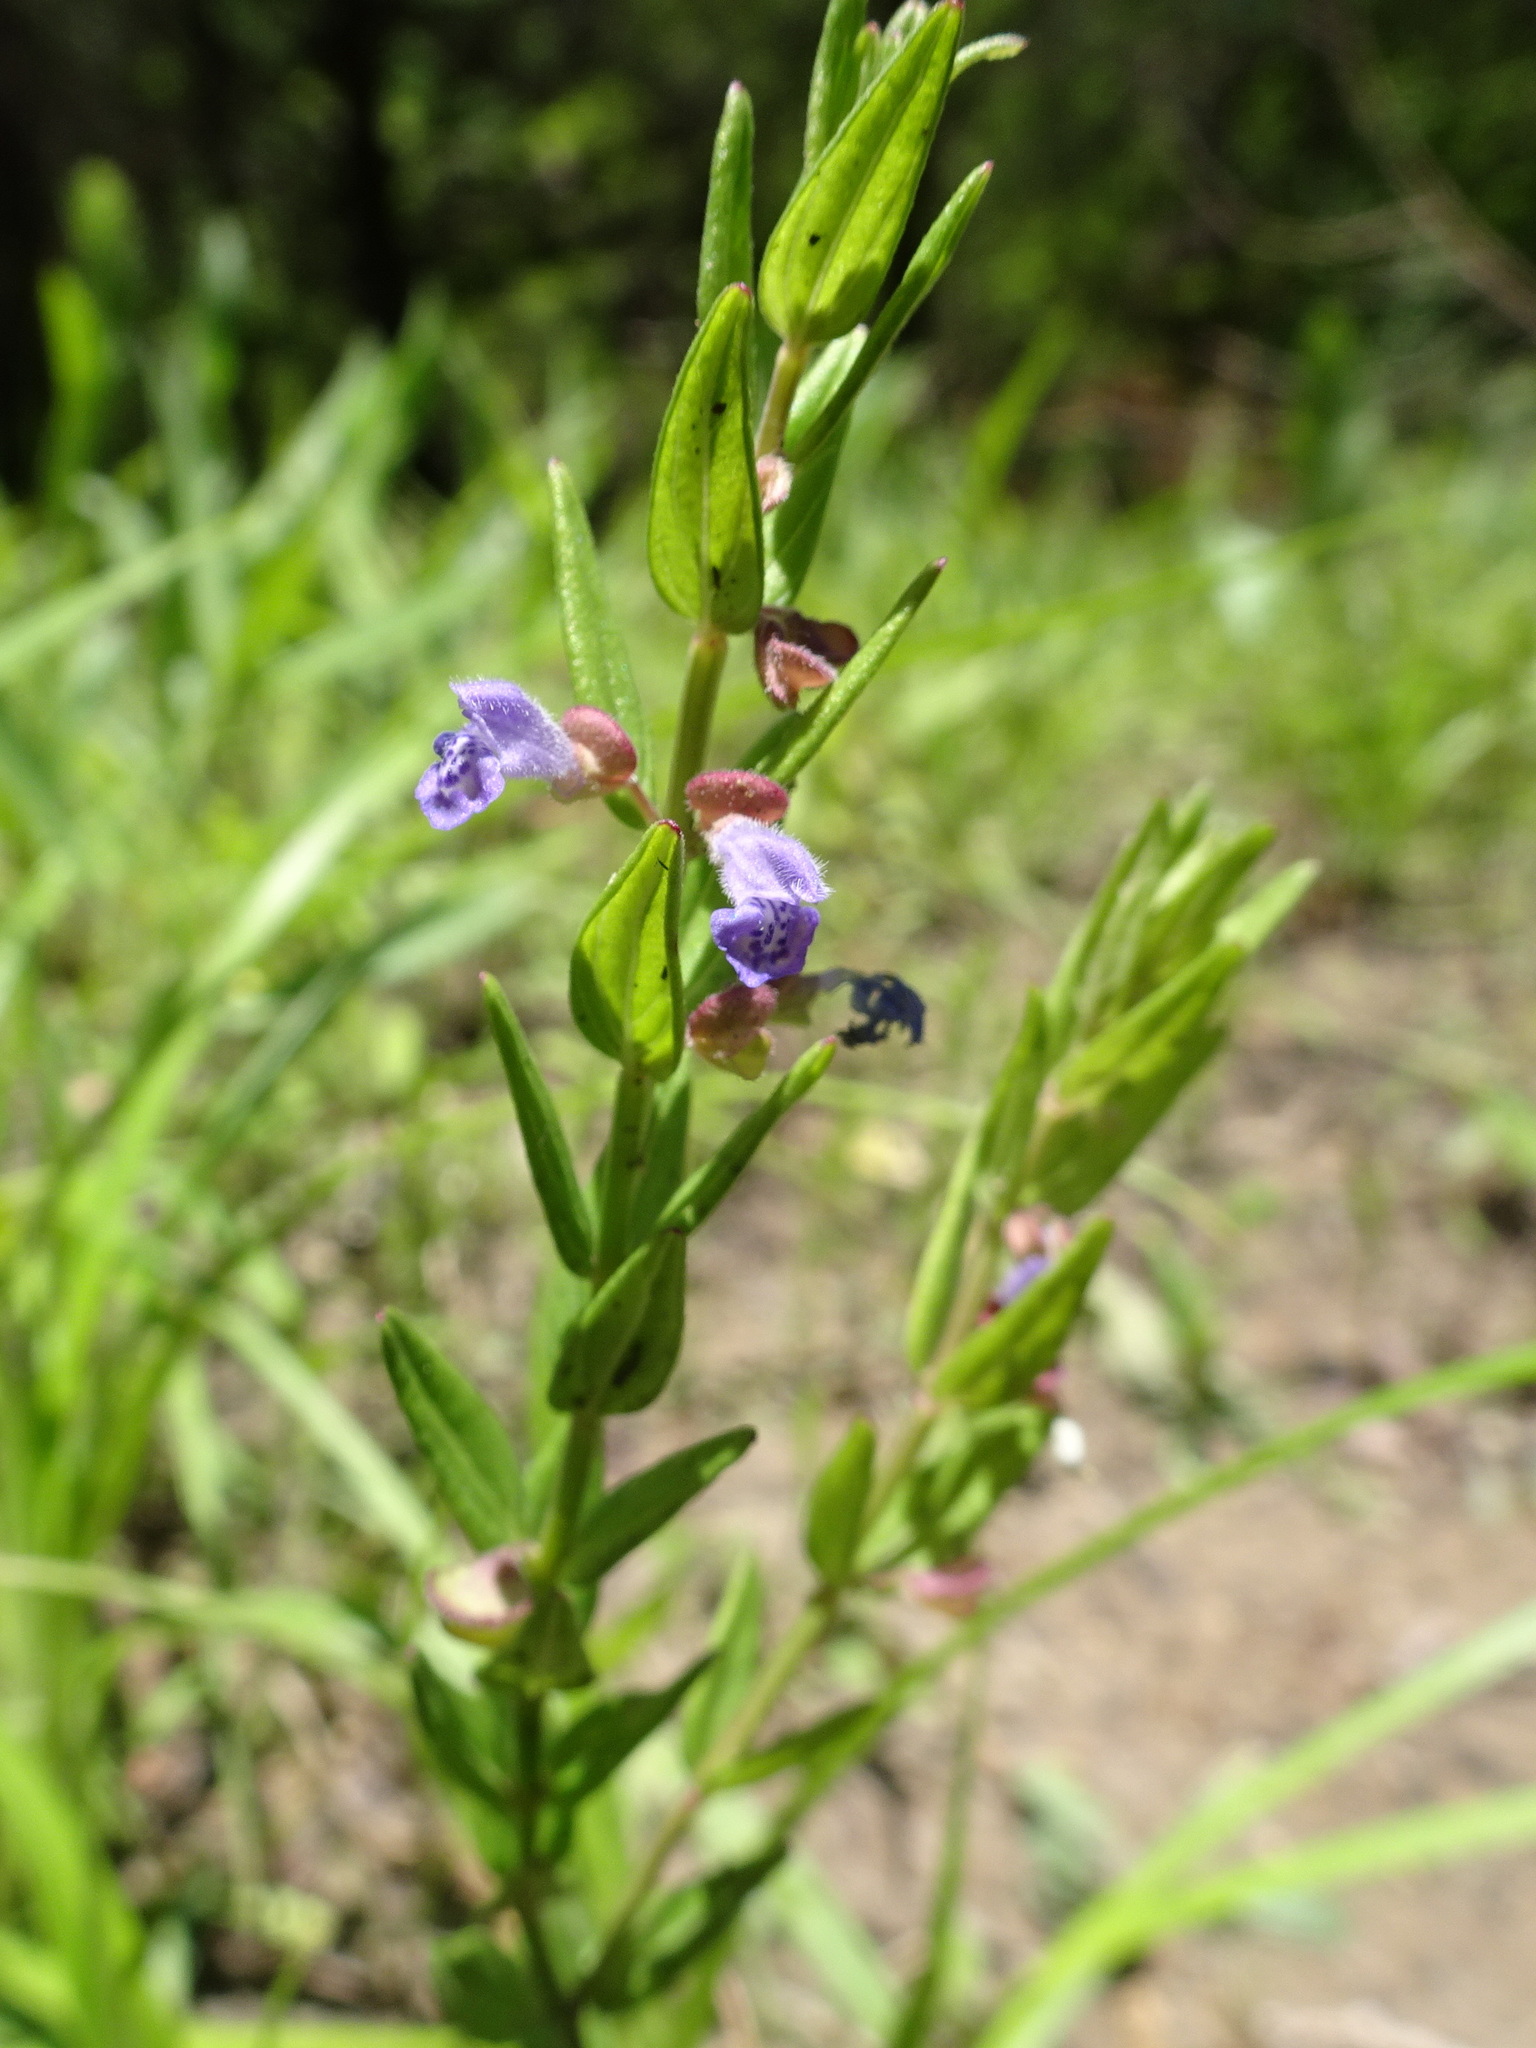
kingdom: Plantae
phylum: Tracheophyta
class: Magnoliopsida
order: Lamiales
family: Lamiaceae
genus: Scutellaria
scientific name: Scutellaria parvula
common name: Little scullcap
